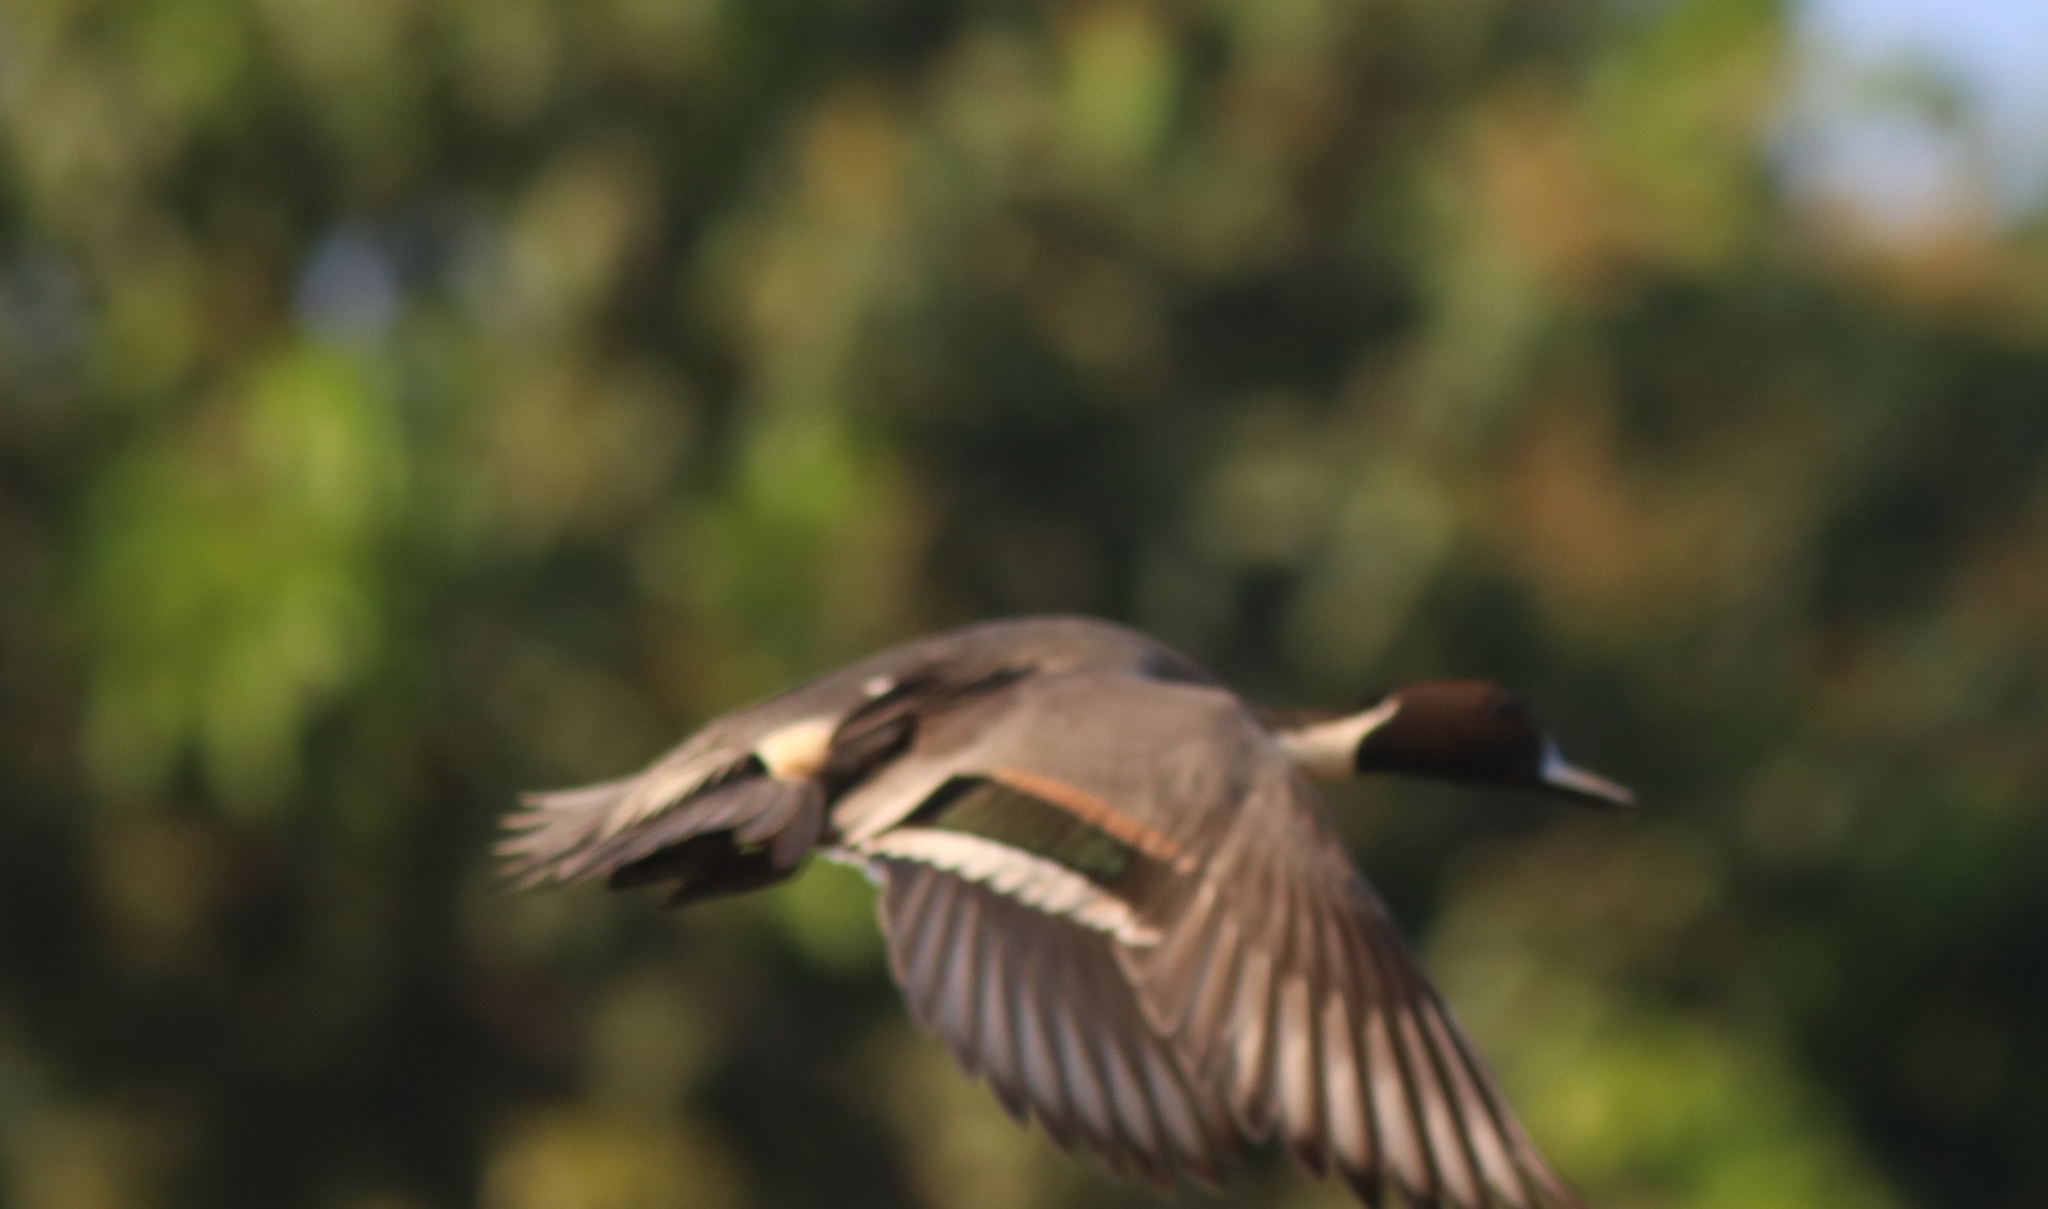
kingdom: Animalia
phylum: Chordata
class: Aves
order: Anseriformes
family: Anatidae
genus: Anas
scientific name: Anas acuta
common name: Northern pintail
